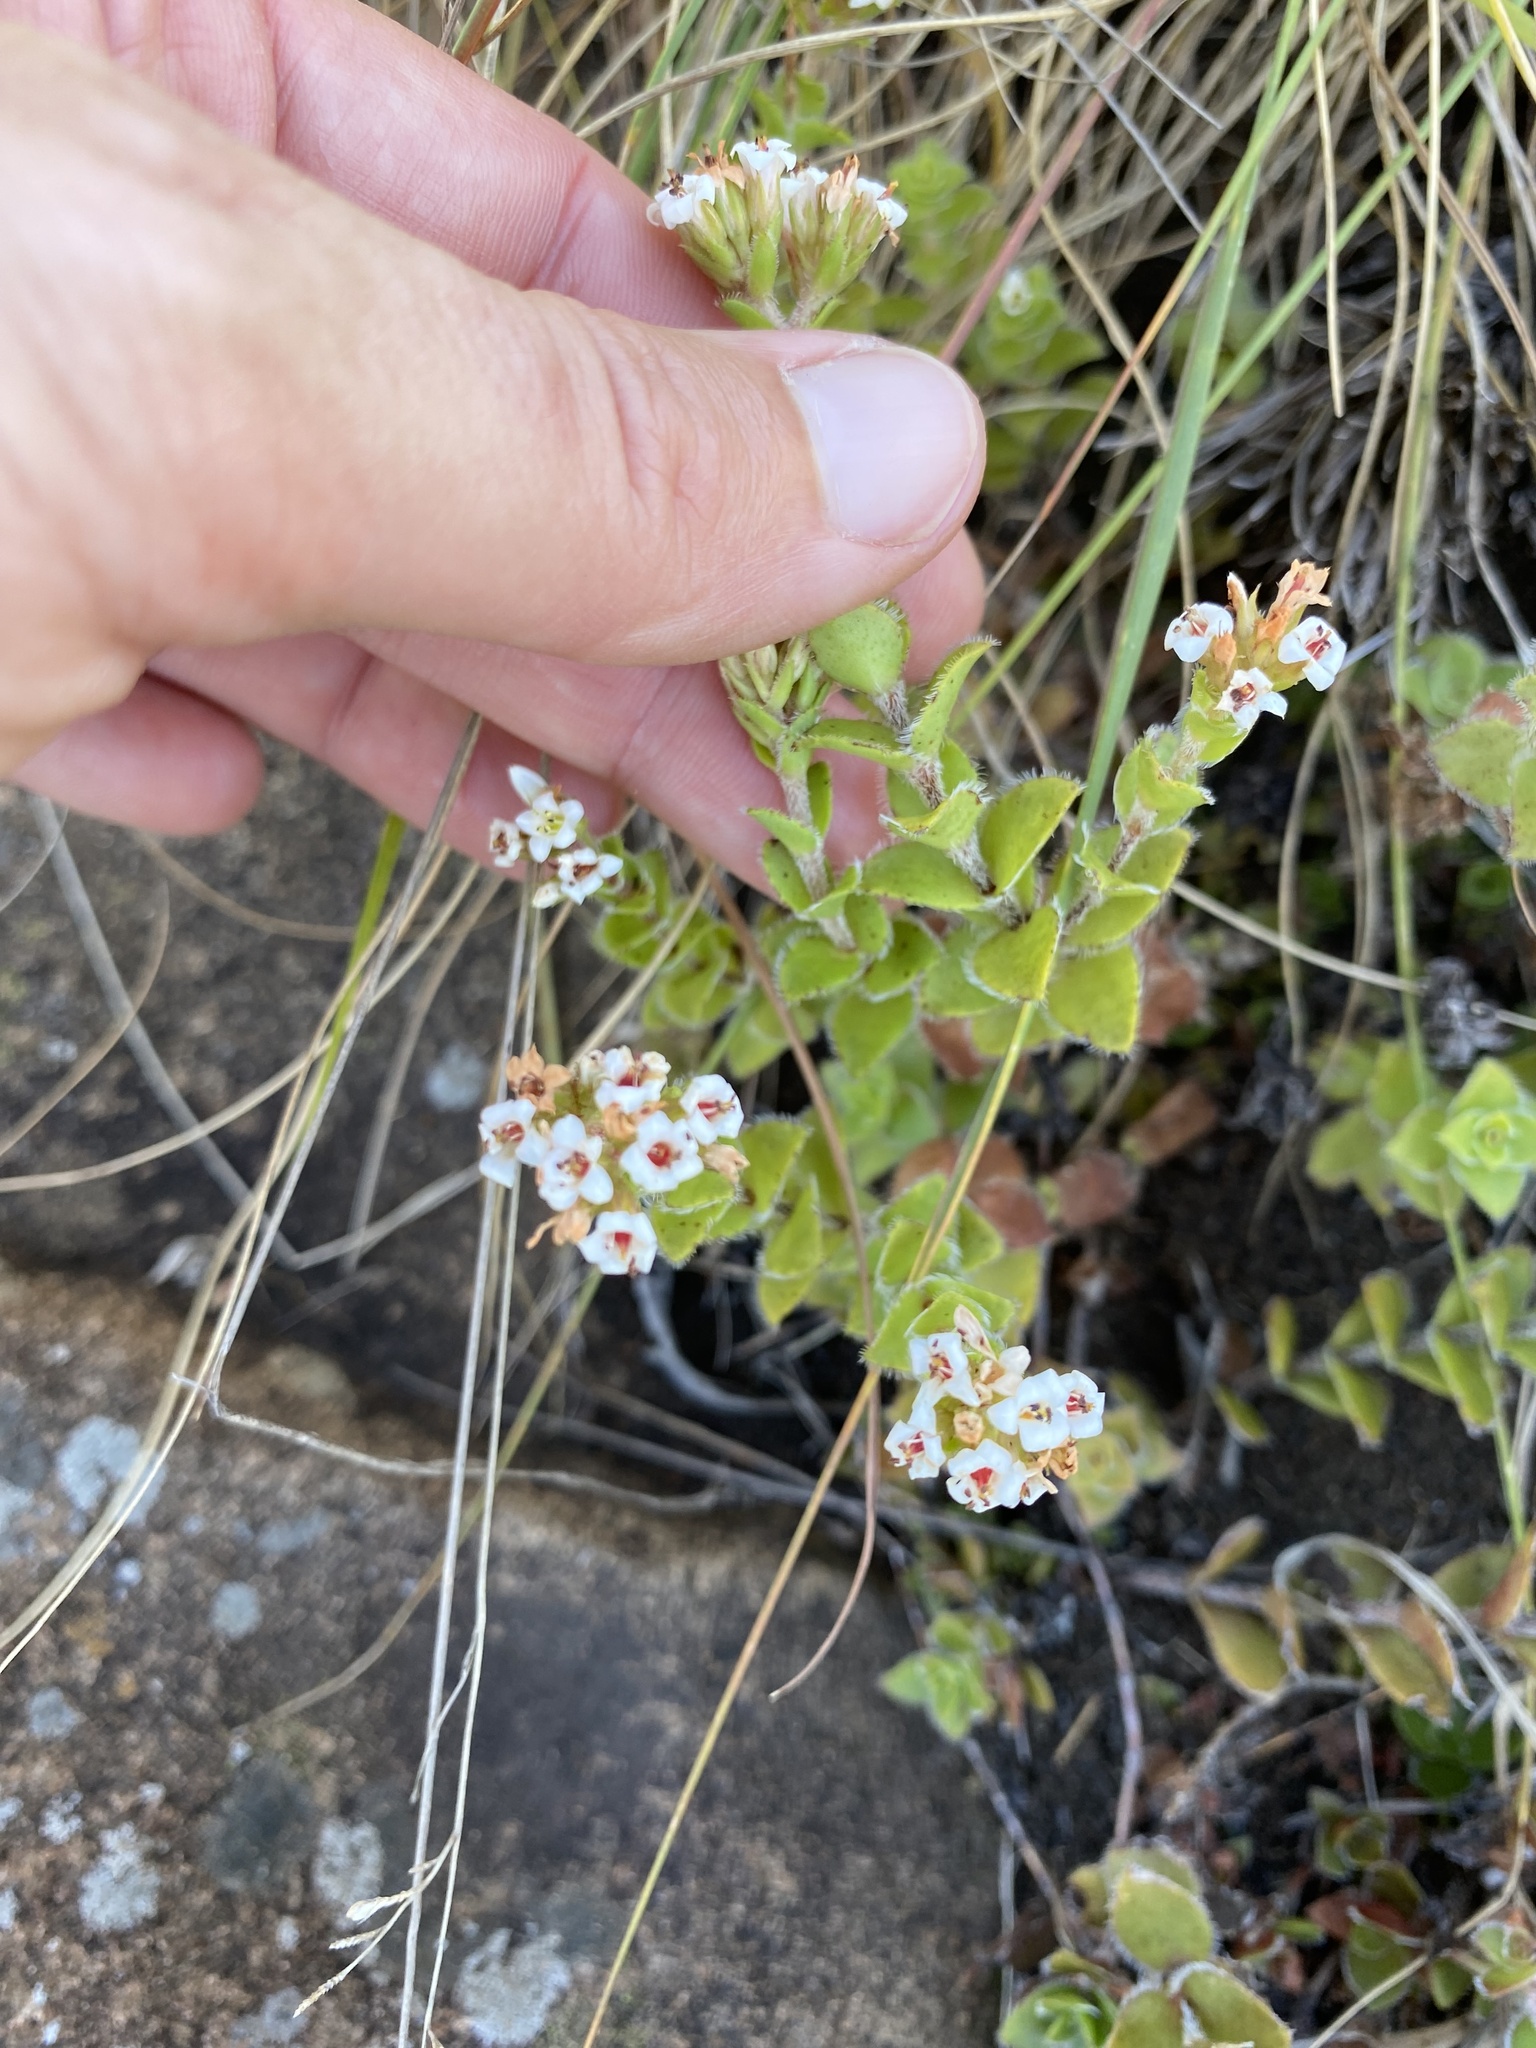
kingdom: Plantae
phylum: Tracheophyta
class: Magnoliopsida
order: Saxifragales
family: Crassulaceae
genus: Crassula
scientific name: Crassula obovata
